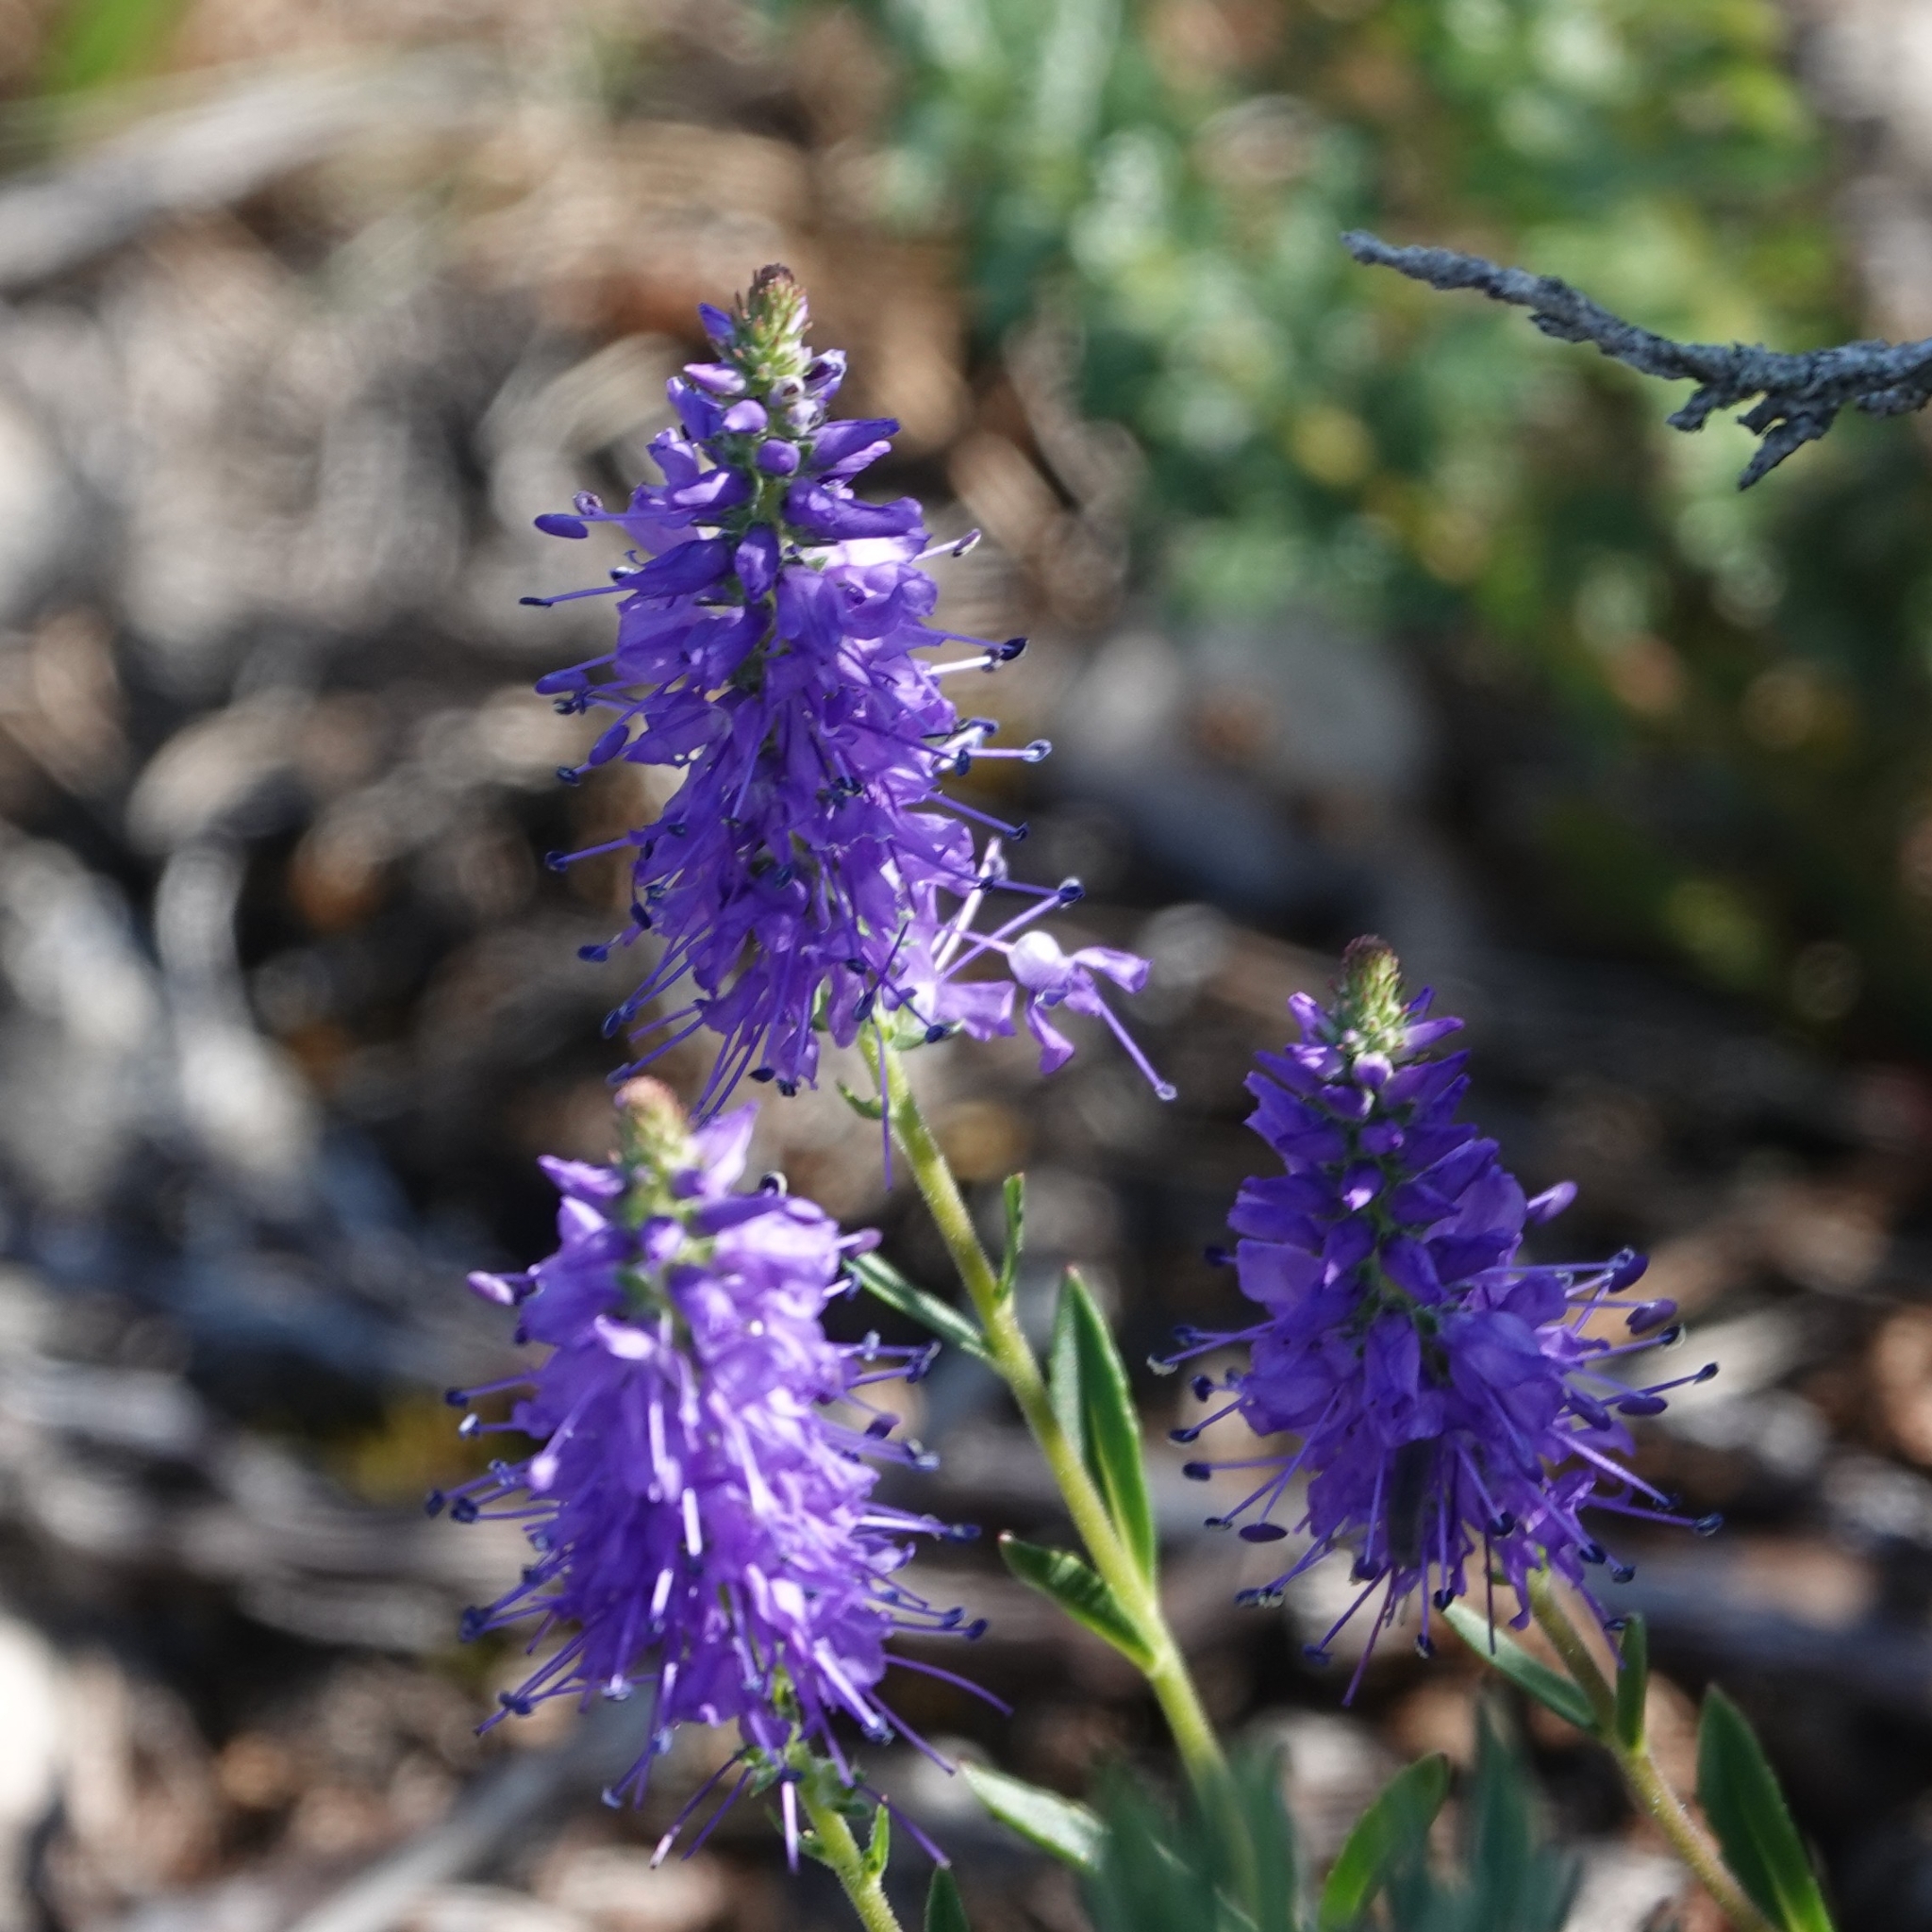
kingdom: Plantae
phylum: Tracheophyta
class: Magnoliopsida
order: Lamiales
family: Plantaginaceae
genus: Veronica
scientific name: Veronica spicata
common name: Spiked speedwell
